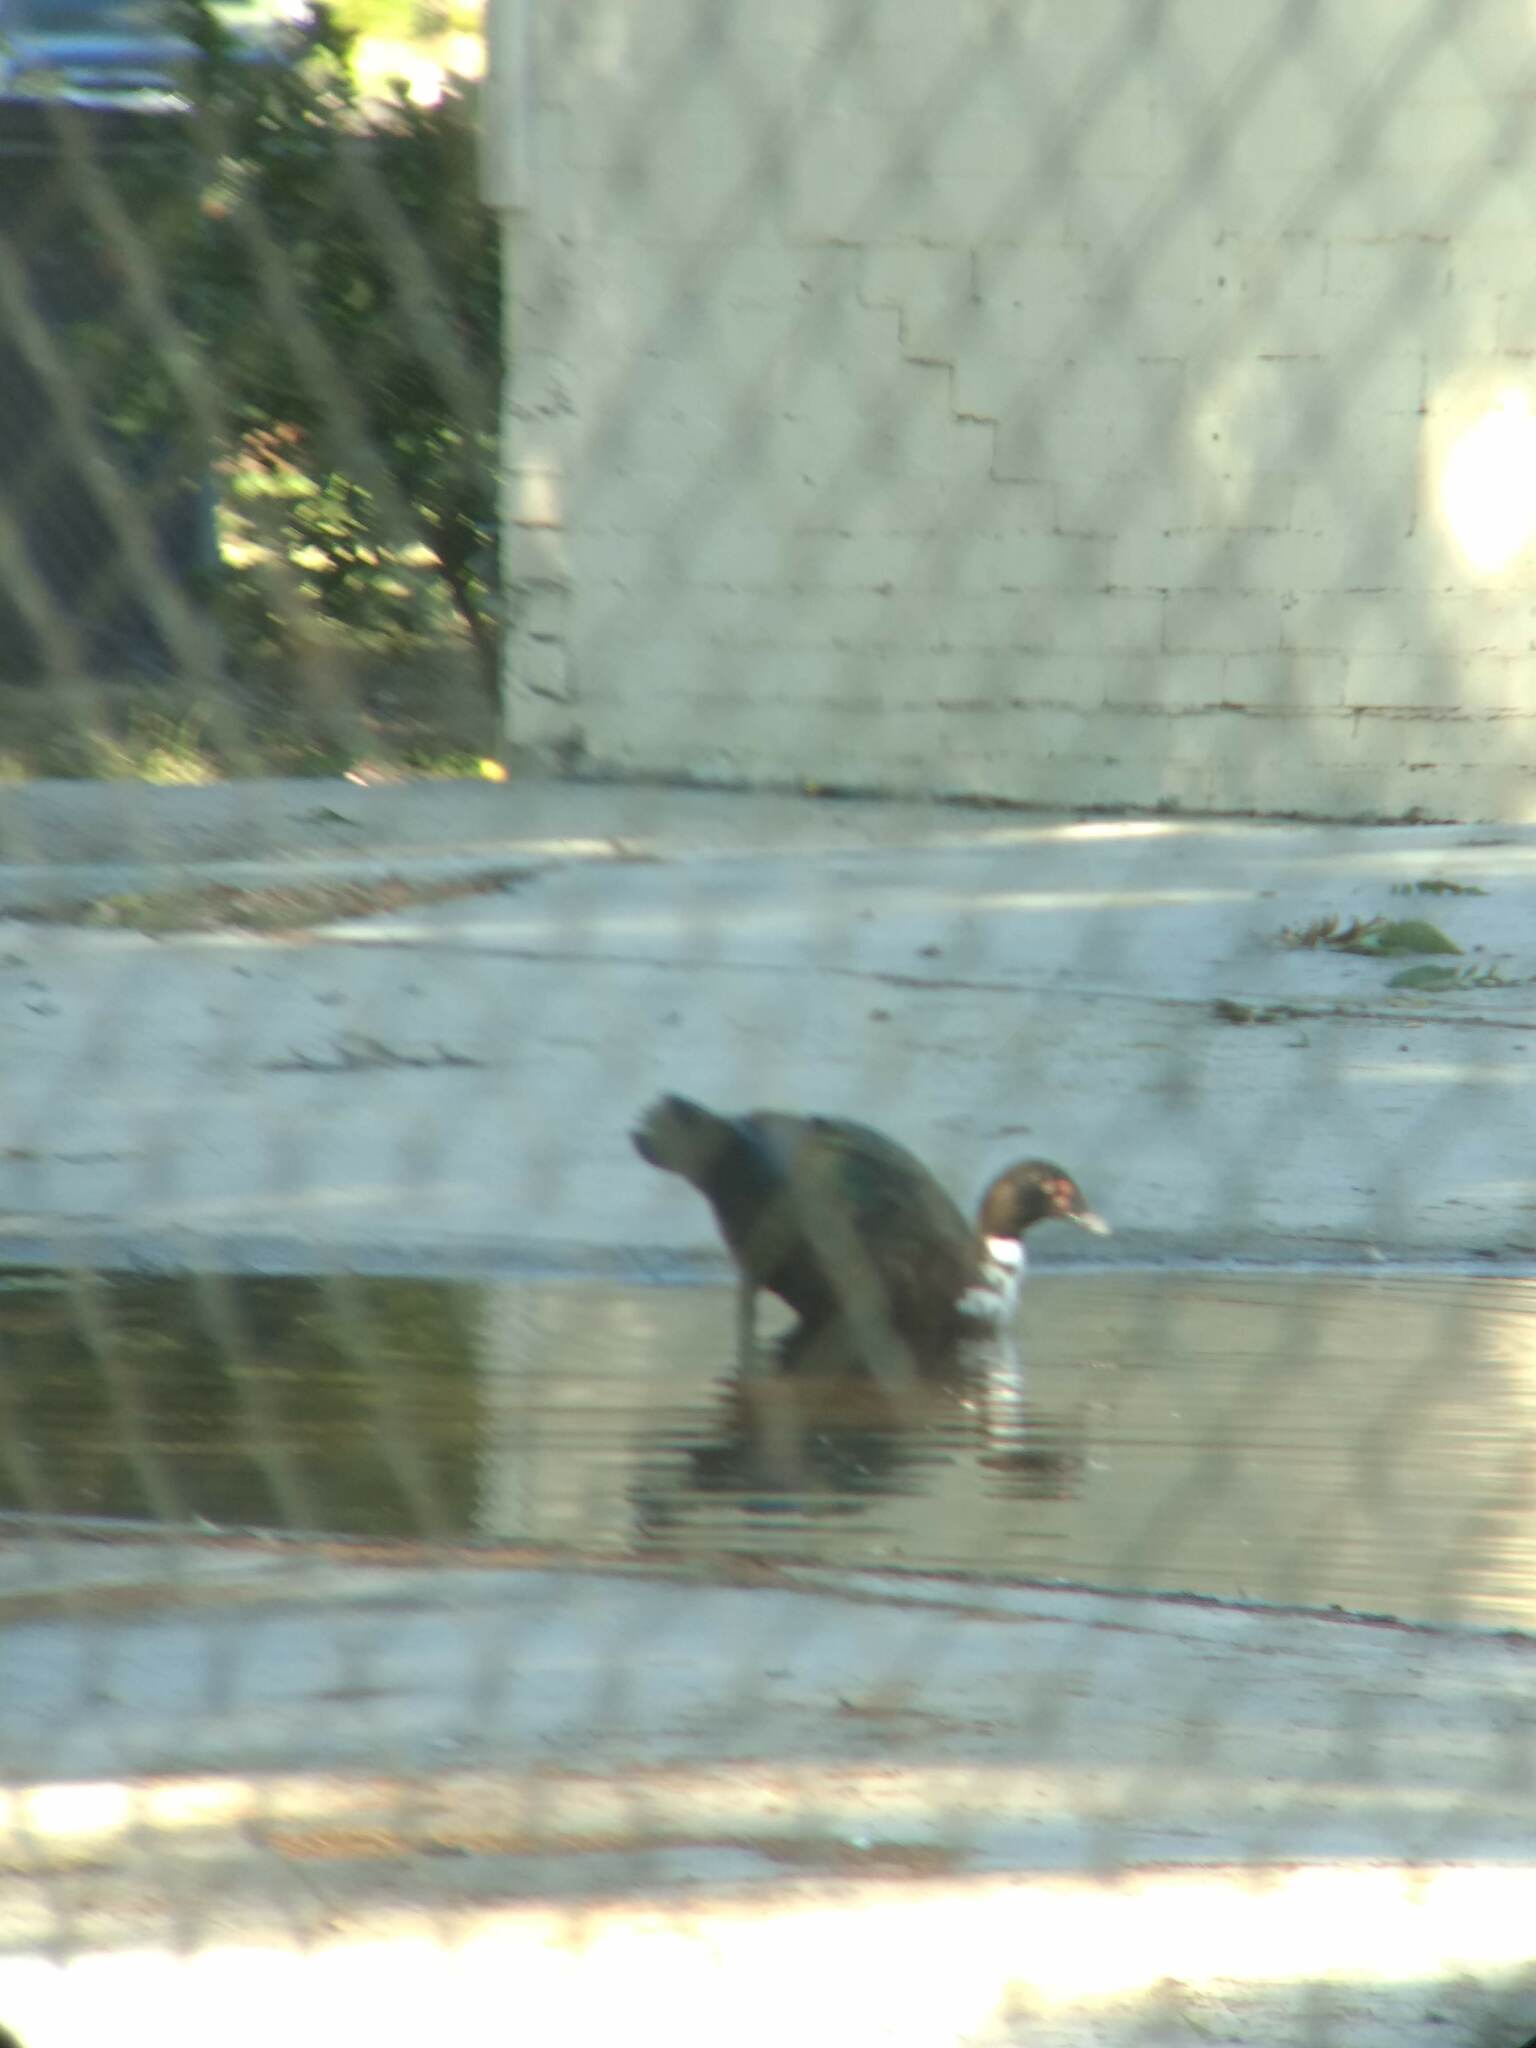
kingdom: Animalia
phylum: Chordata
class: Aves
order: Anseriformes
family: Anatidae
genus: Cairina
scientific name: Cairina moschata
